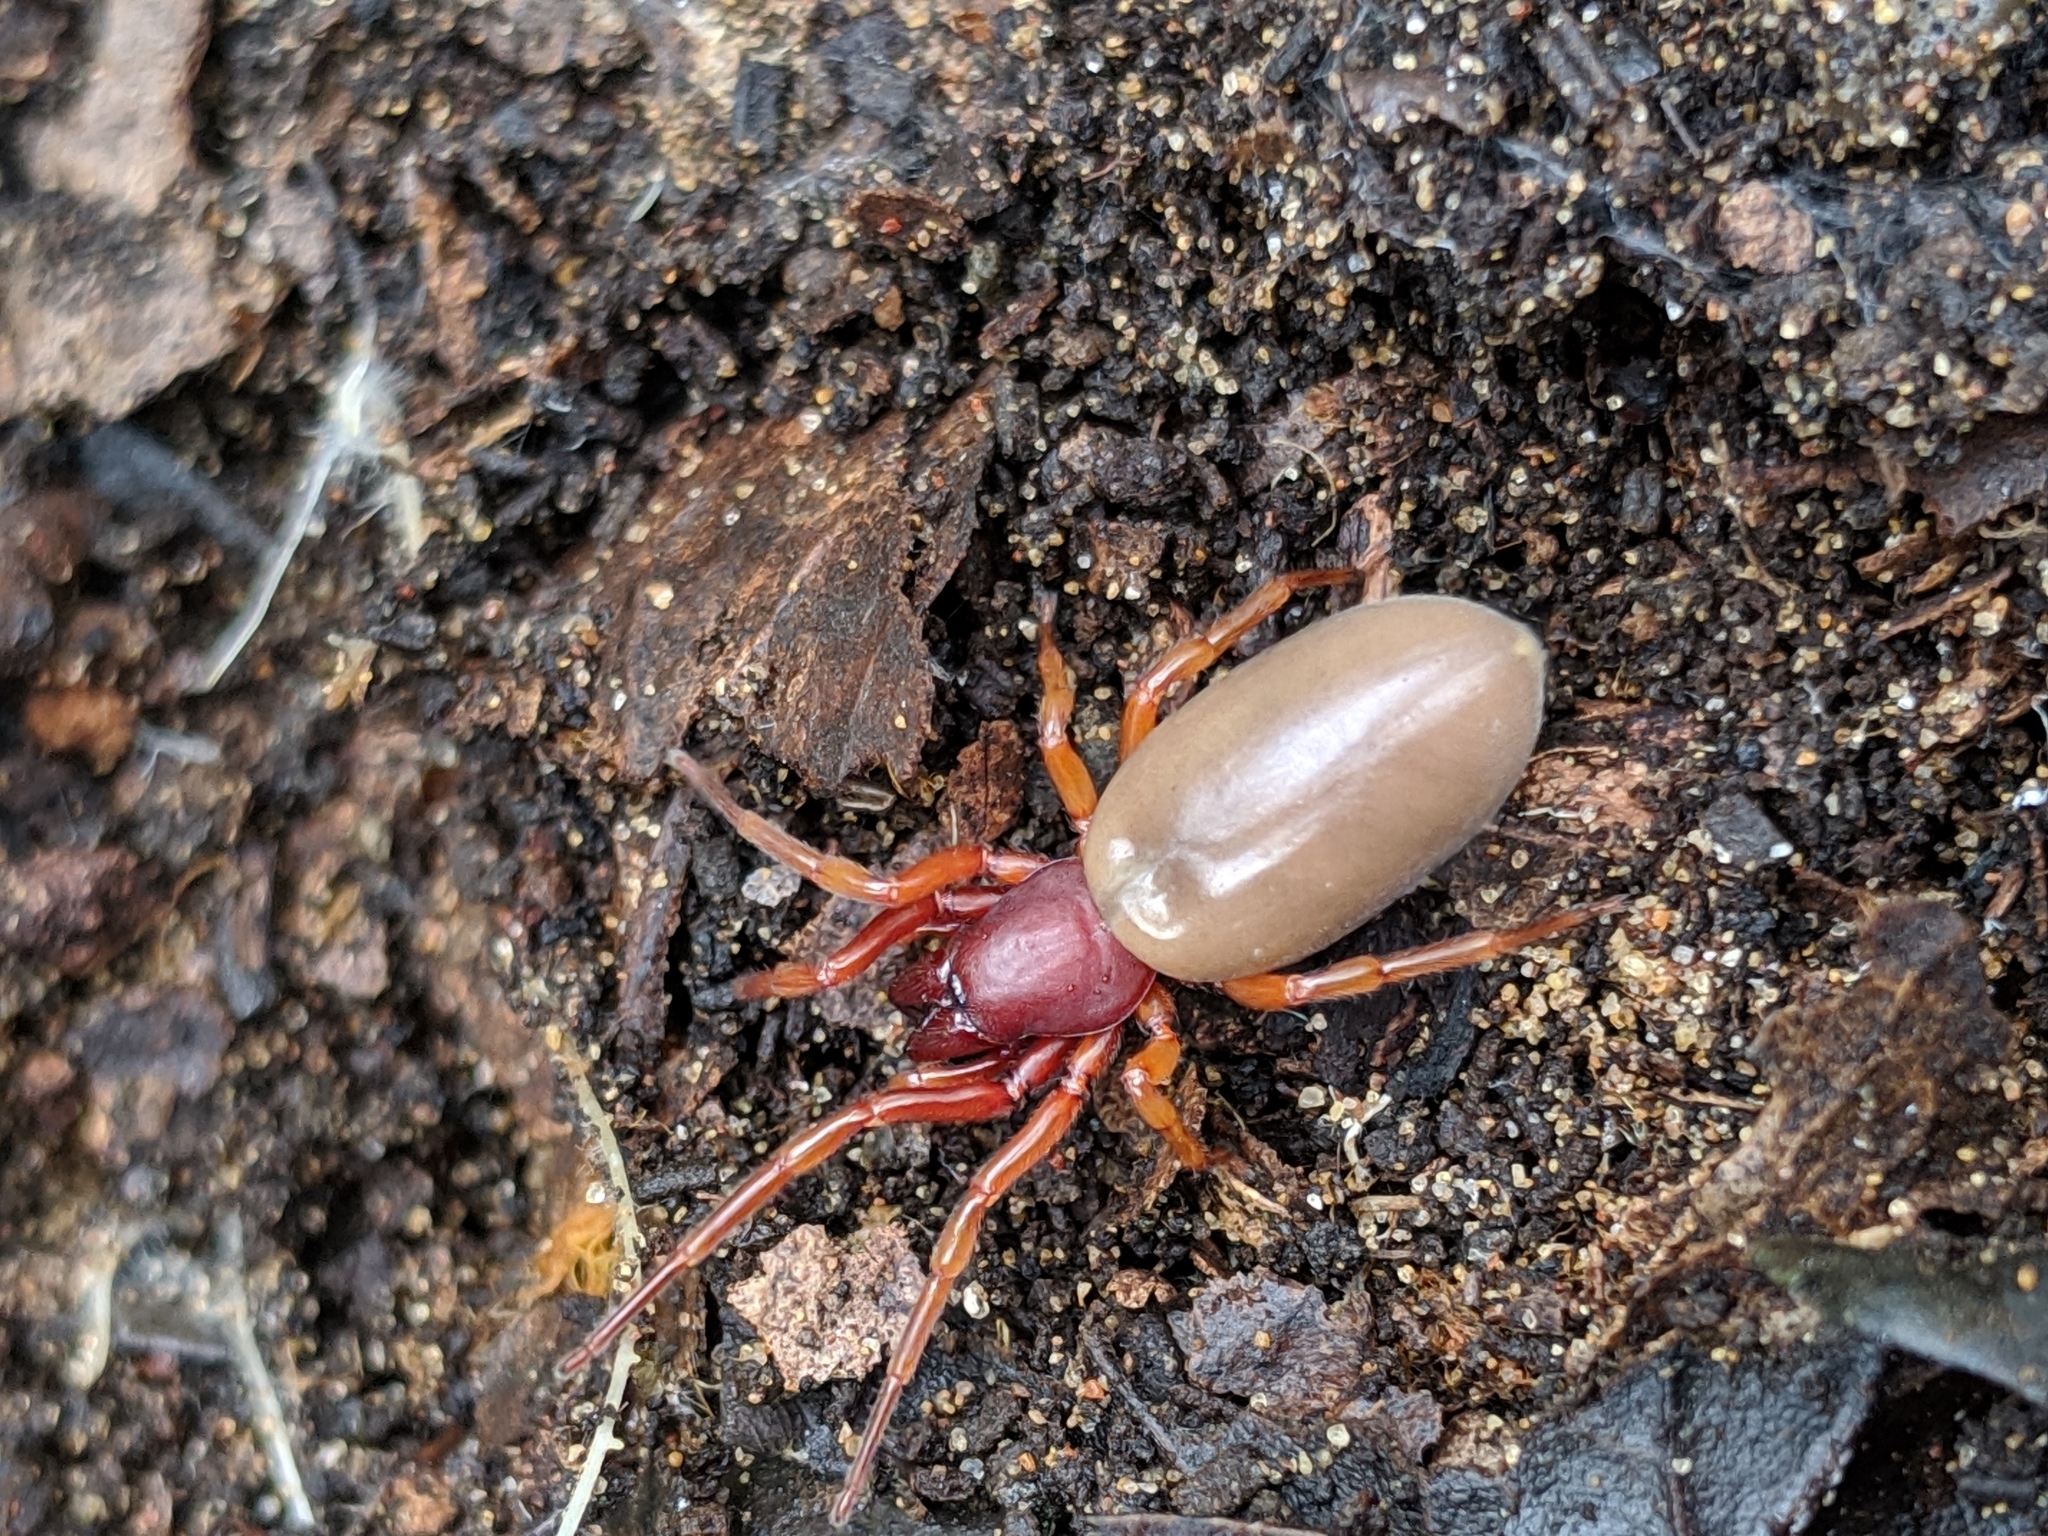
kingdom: Animalia
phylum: Arthropoda
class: Arachnida
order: Araneae
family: Dysderidae
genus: Dysdera
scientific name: Dysdera crocata
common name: Woodlouse spider
